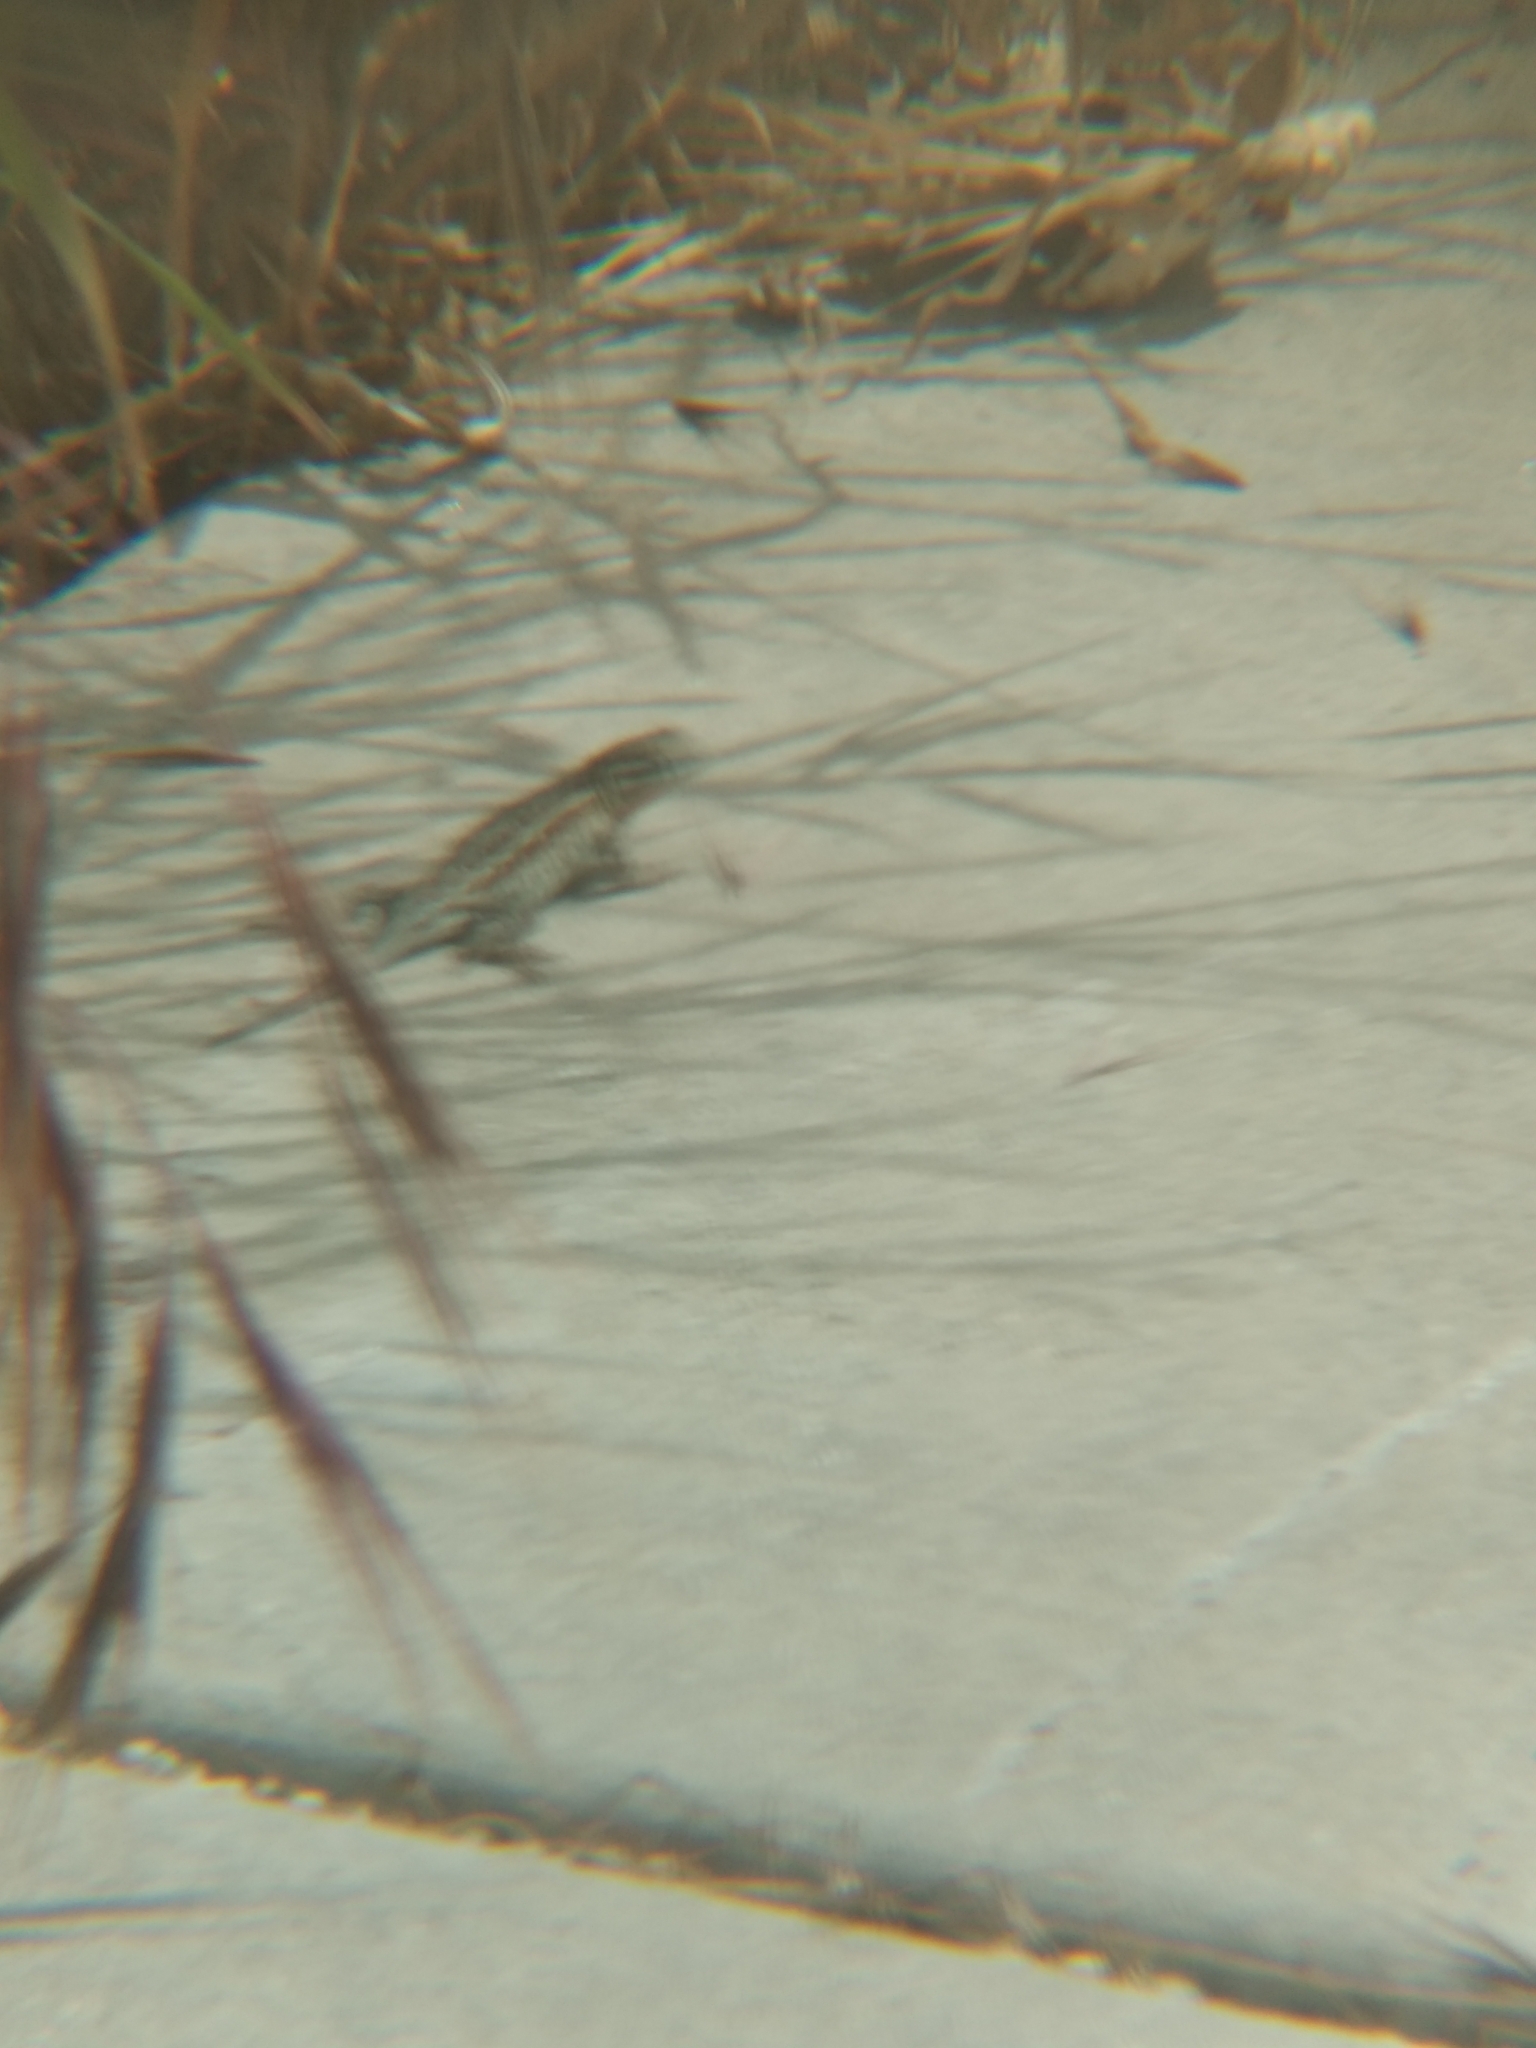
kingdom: Animalia
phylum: Chordata
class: Squamata
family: Phrynosomatidae
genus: Uta
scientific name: Uta stansburiana
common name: Side-blotched lizard
